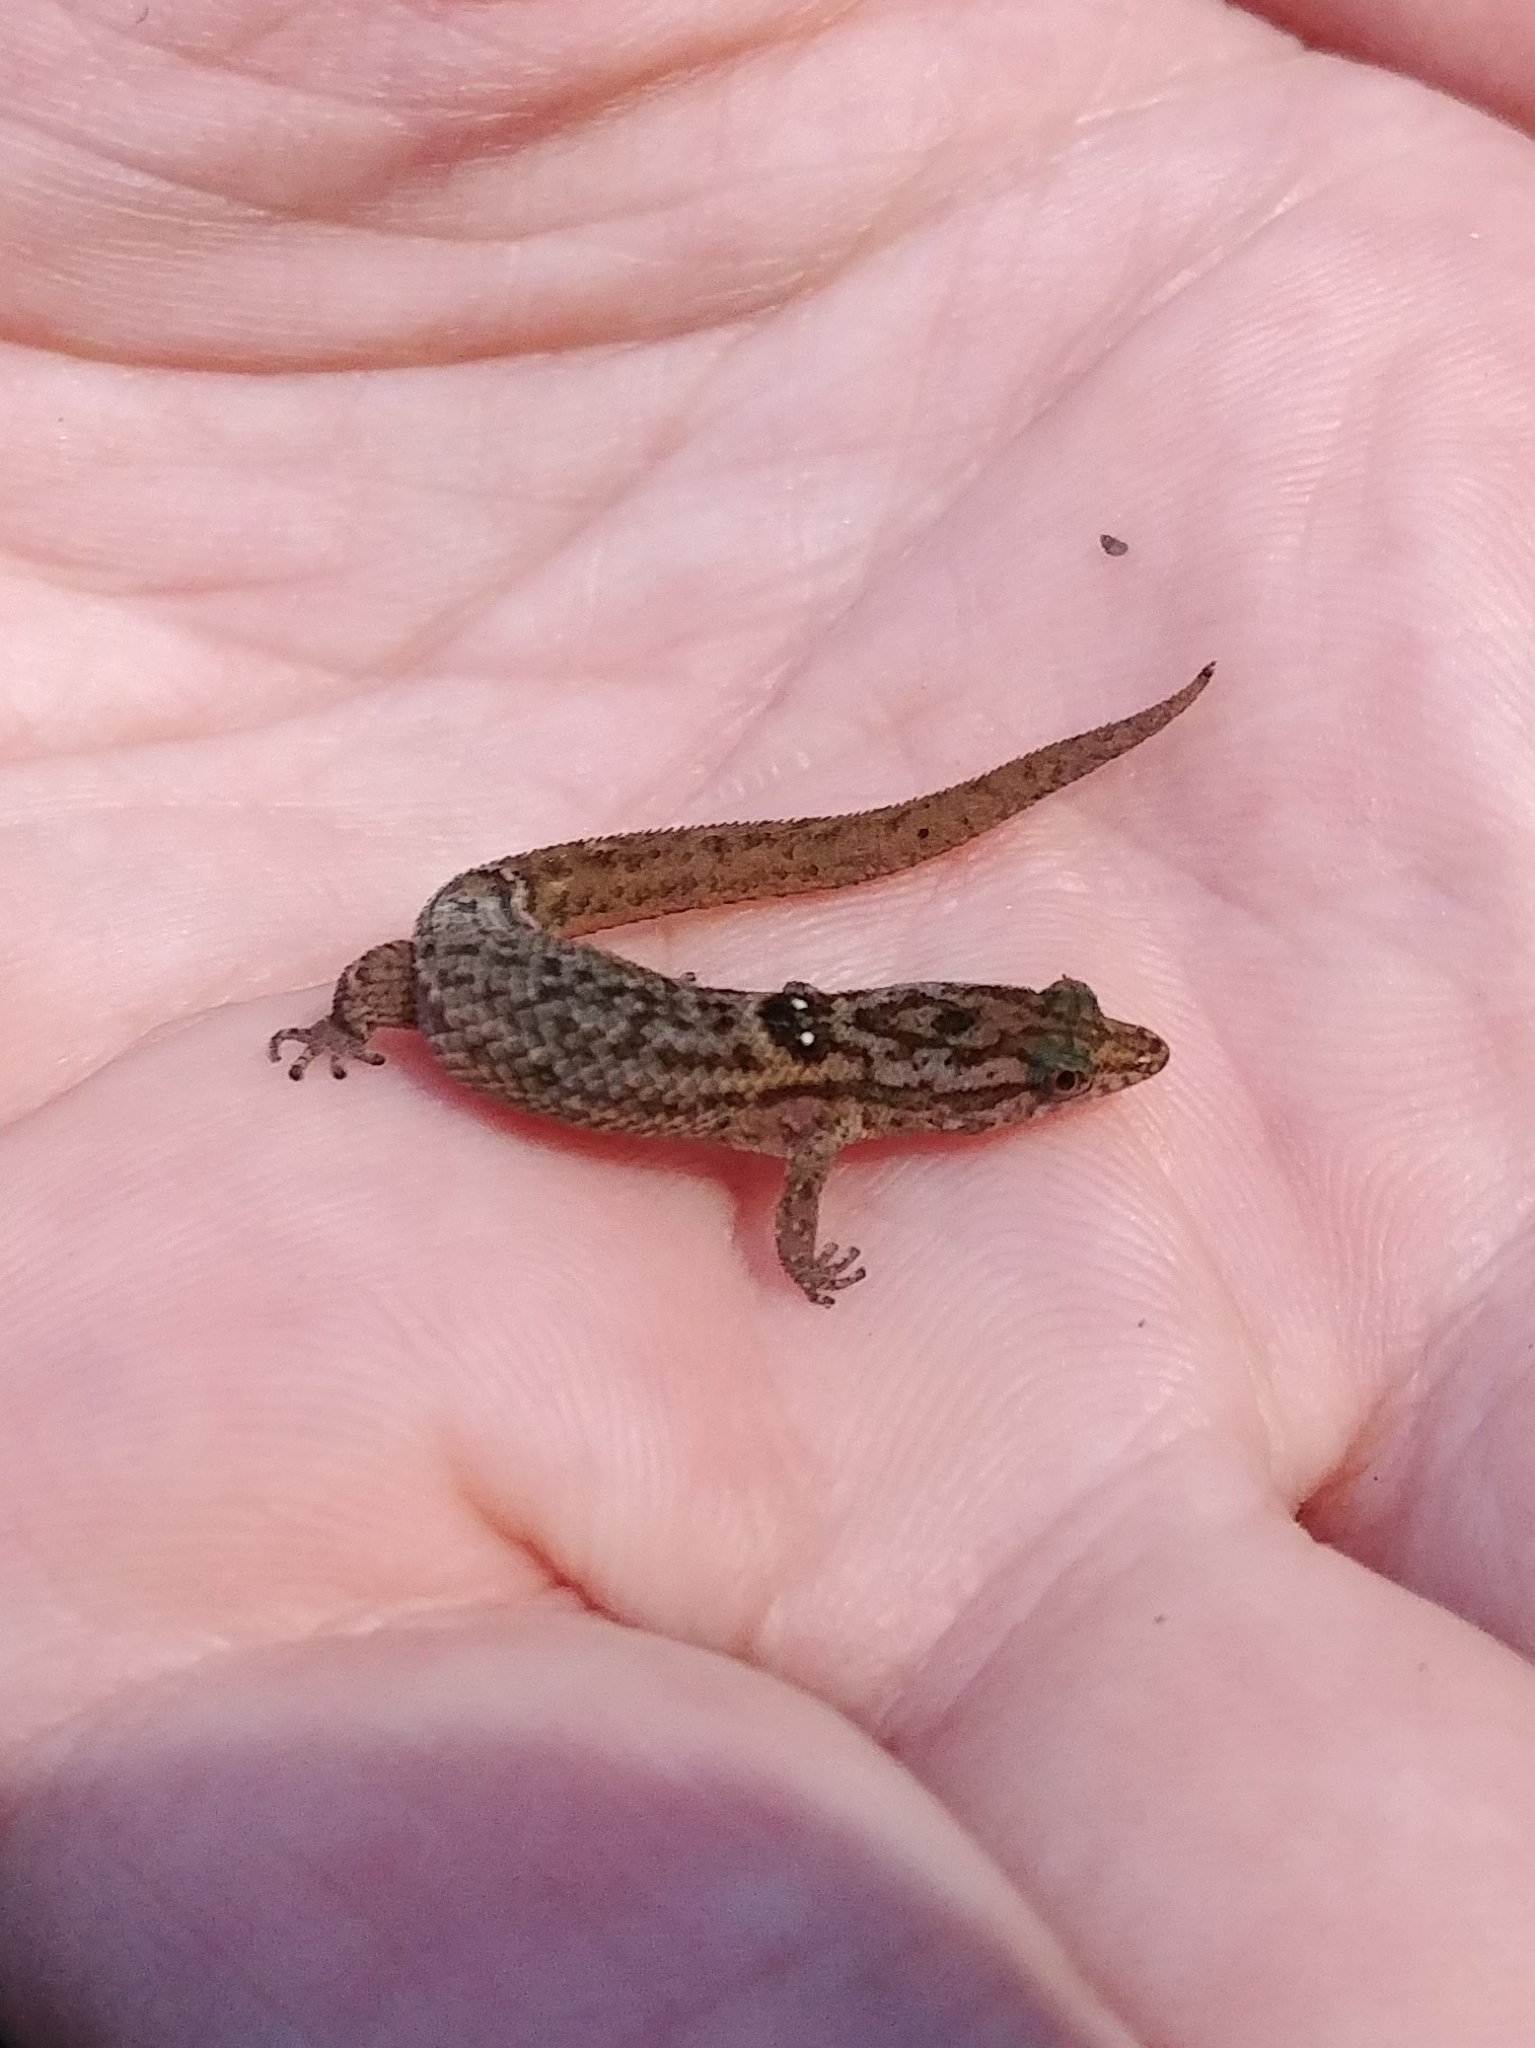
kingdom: Animalia
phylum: Chordata
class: Squamata
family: Sphaerodactylidae
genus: Sphaerodactylus
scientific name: Sphaerodactylus macrolepis
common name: Big-scaled least gecko
